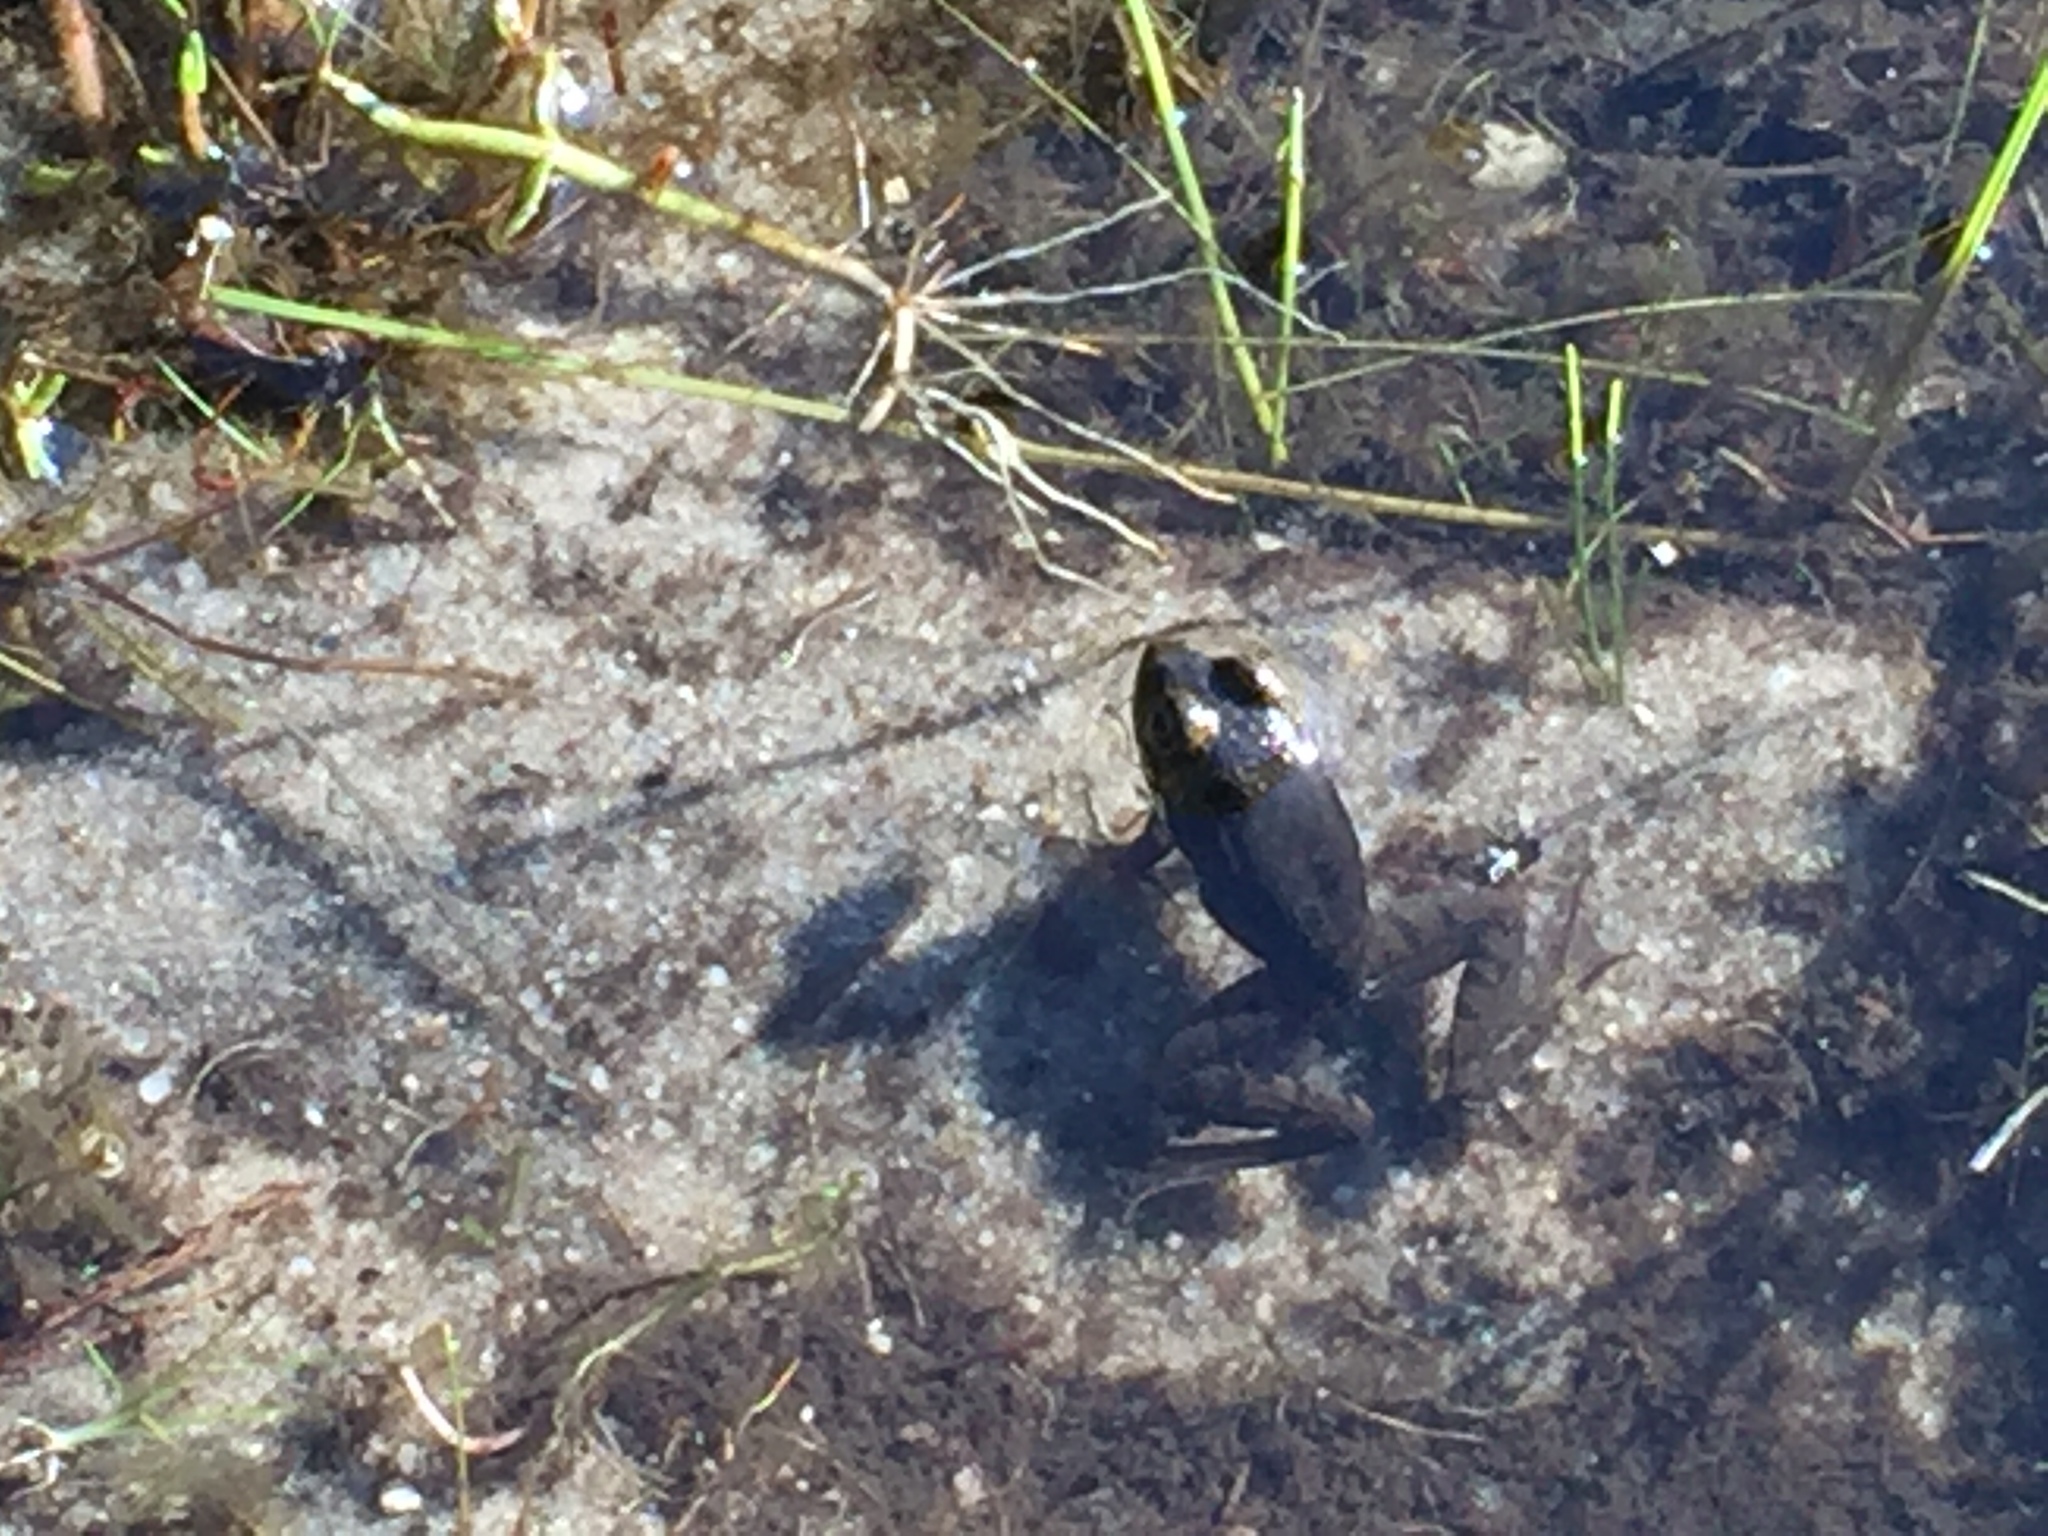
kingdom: Animalia
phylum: Chordata
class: Amphibia
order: Anura
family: Ranidae
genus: Lithobates
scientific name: Lithobates clamitans
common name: Green frog
